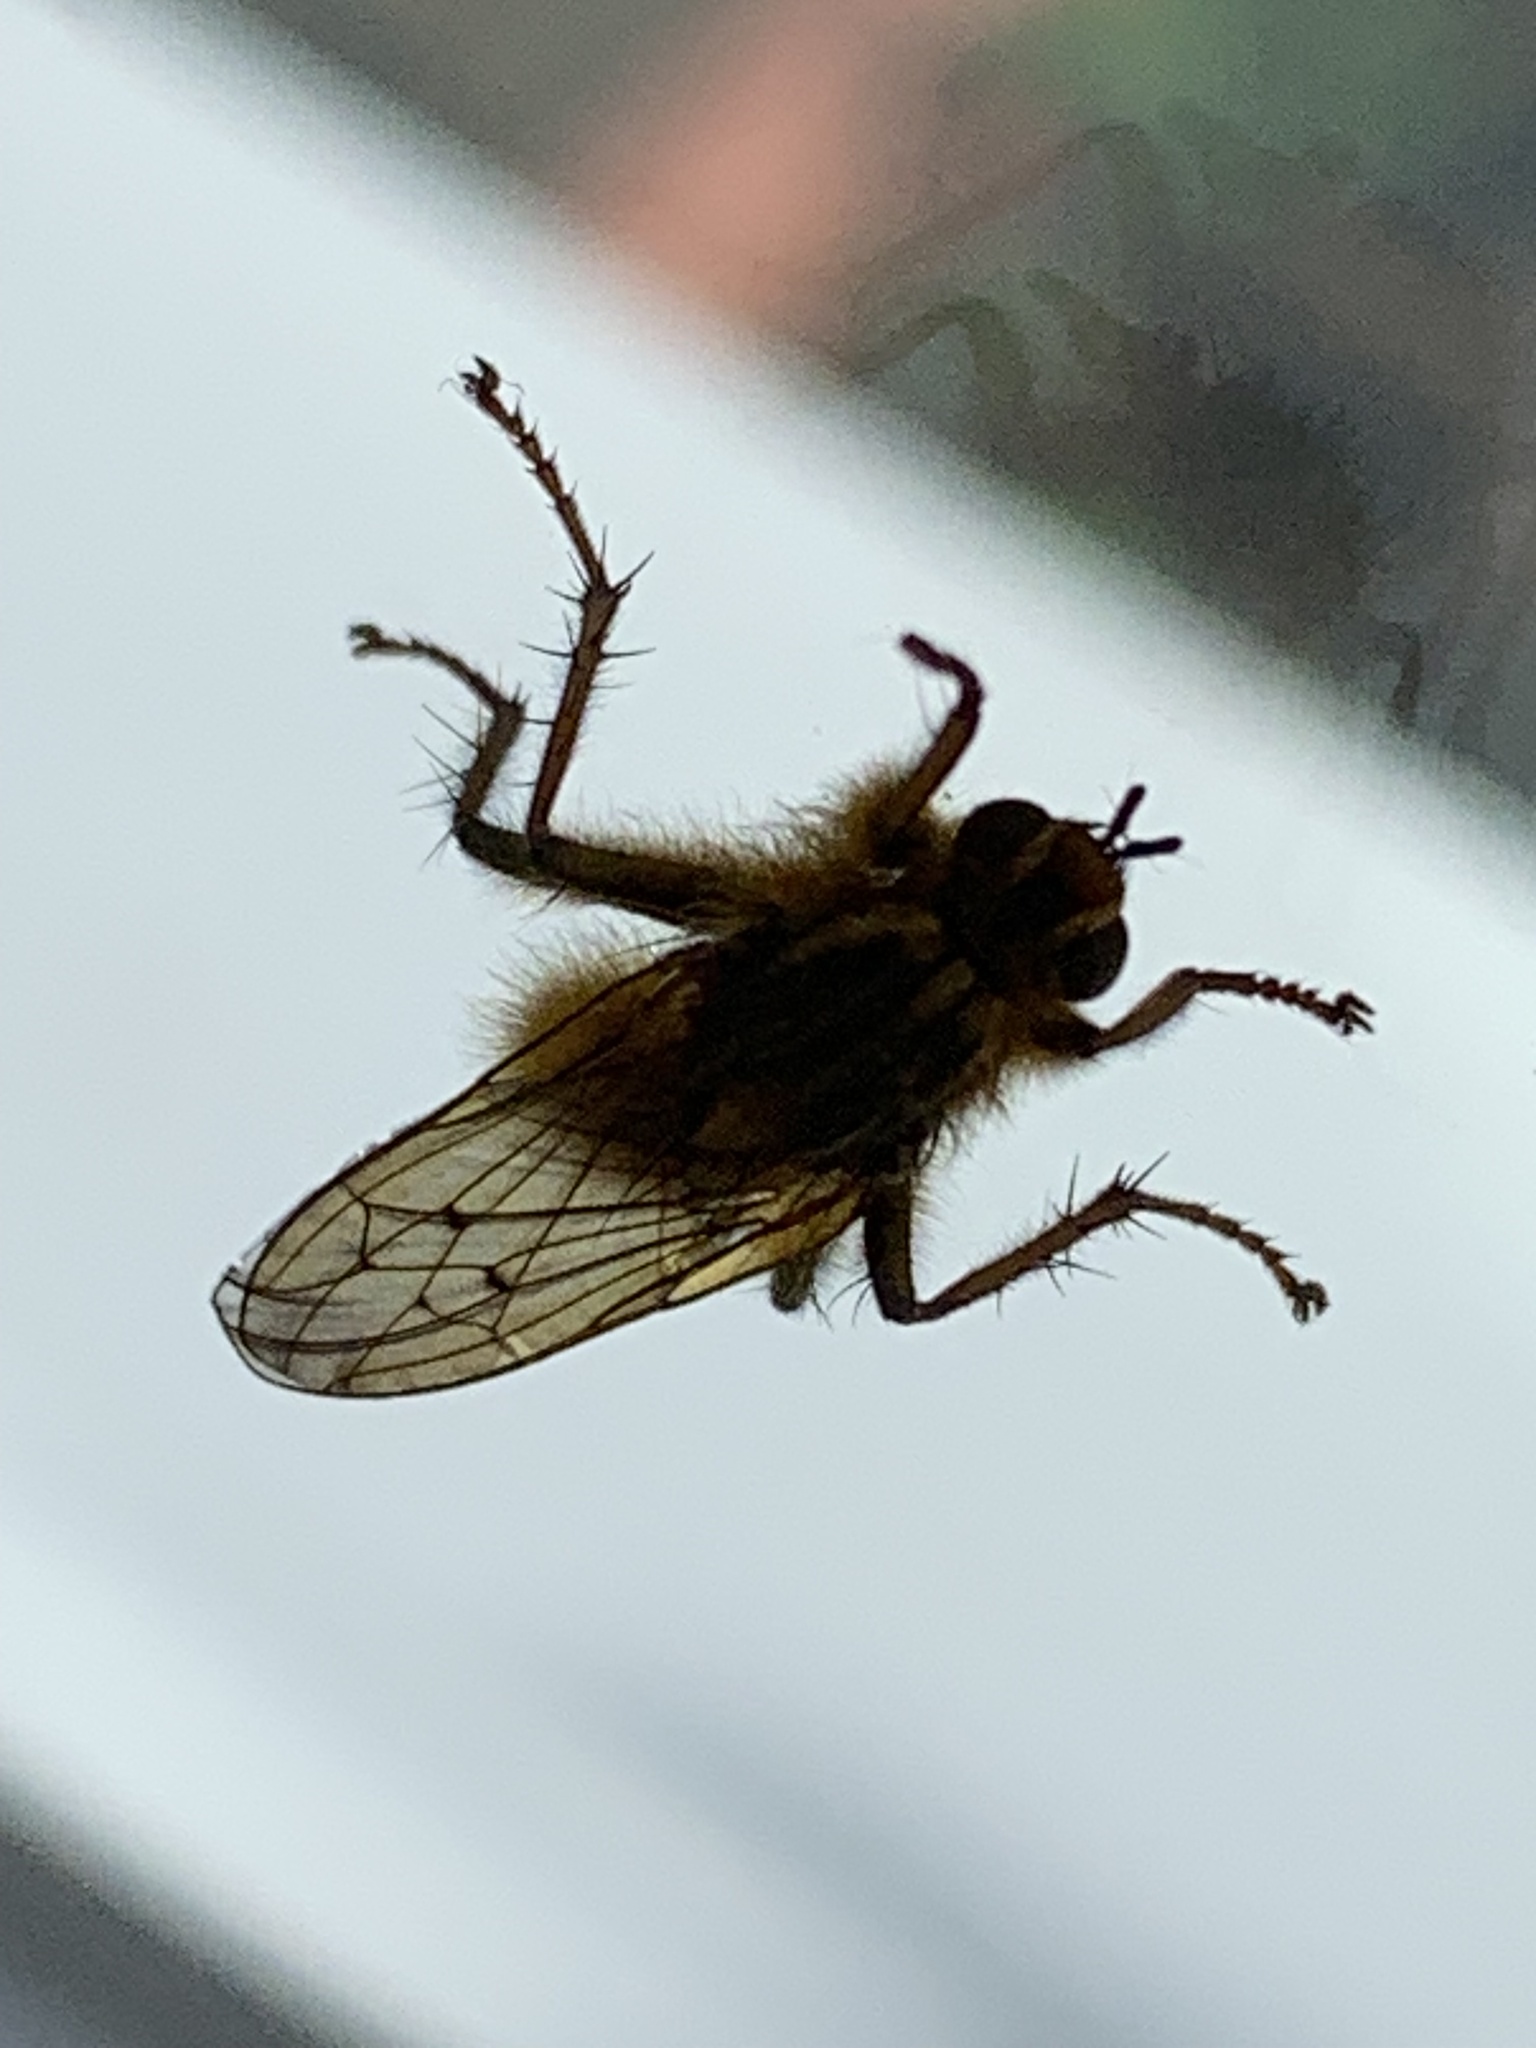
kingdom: Animalia
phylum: Arthropoda
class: Insecta
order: Diptera
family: Scathophagidae
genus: Scathophaga
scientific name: Scathophaga stercoraria
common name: Yellow dung fly
